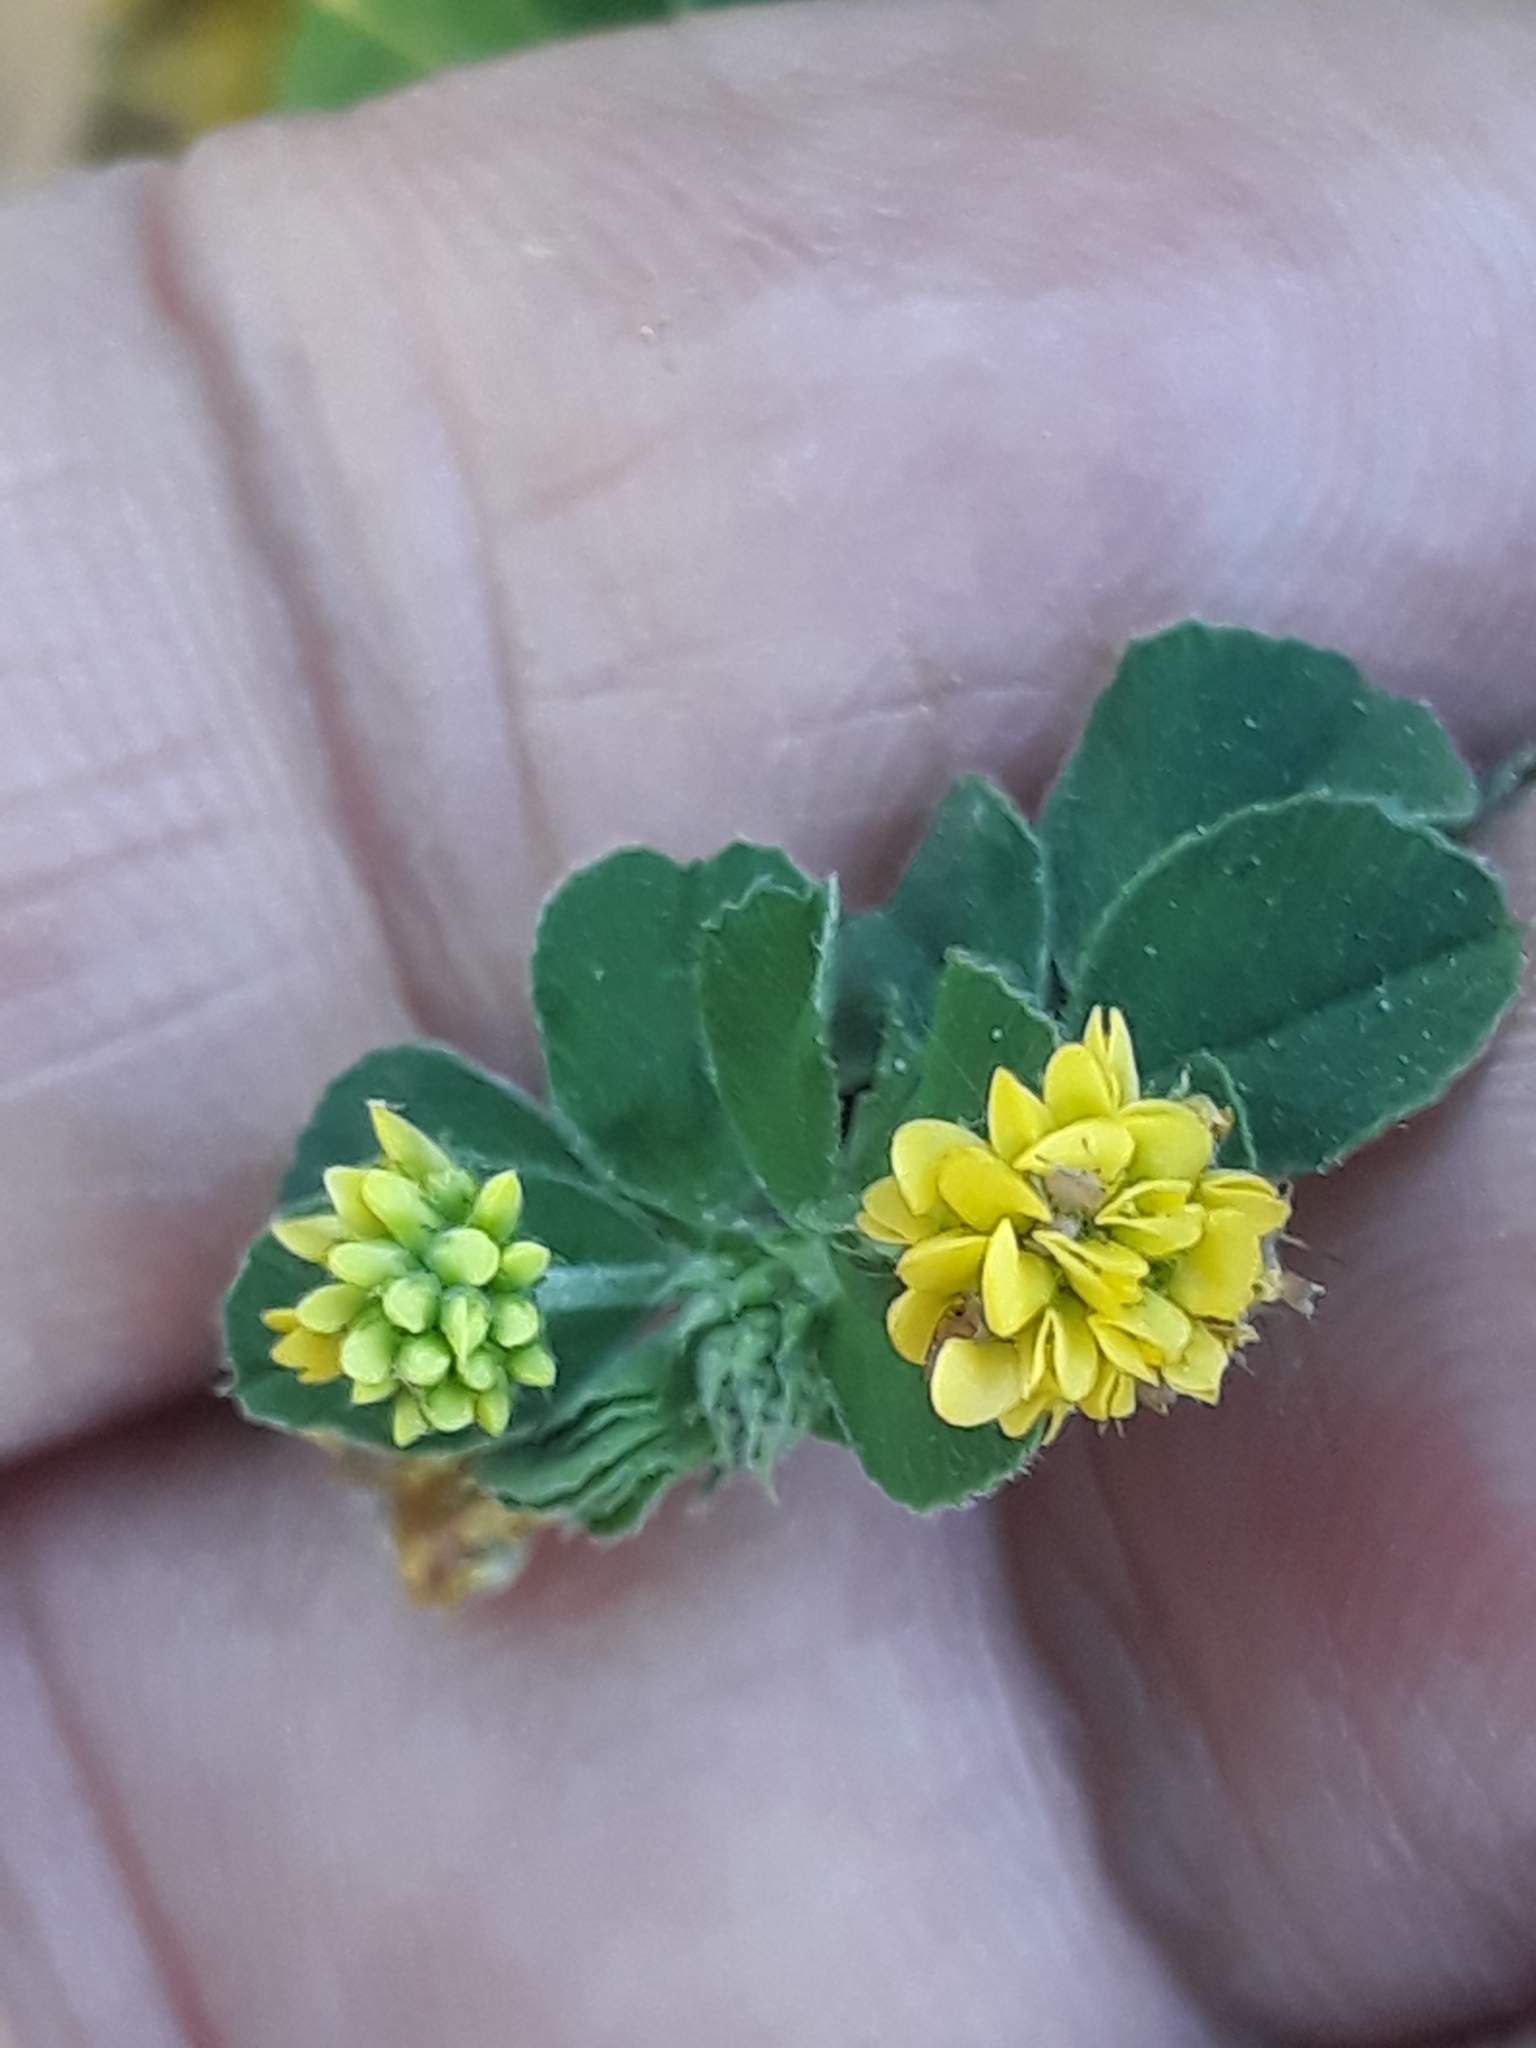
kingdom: Plantae
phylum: Tracheophyta
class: Magnoliopsida
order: Fabales
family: Fabaceae
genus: Medicago
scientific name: Medicago lupulina
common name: Black medick
